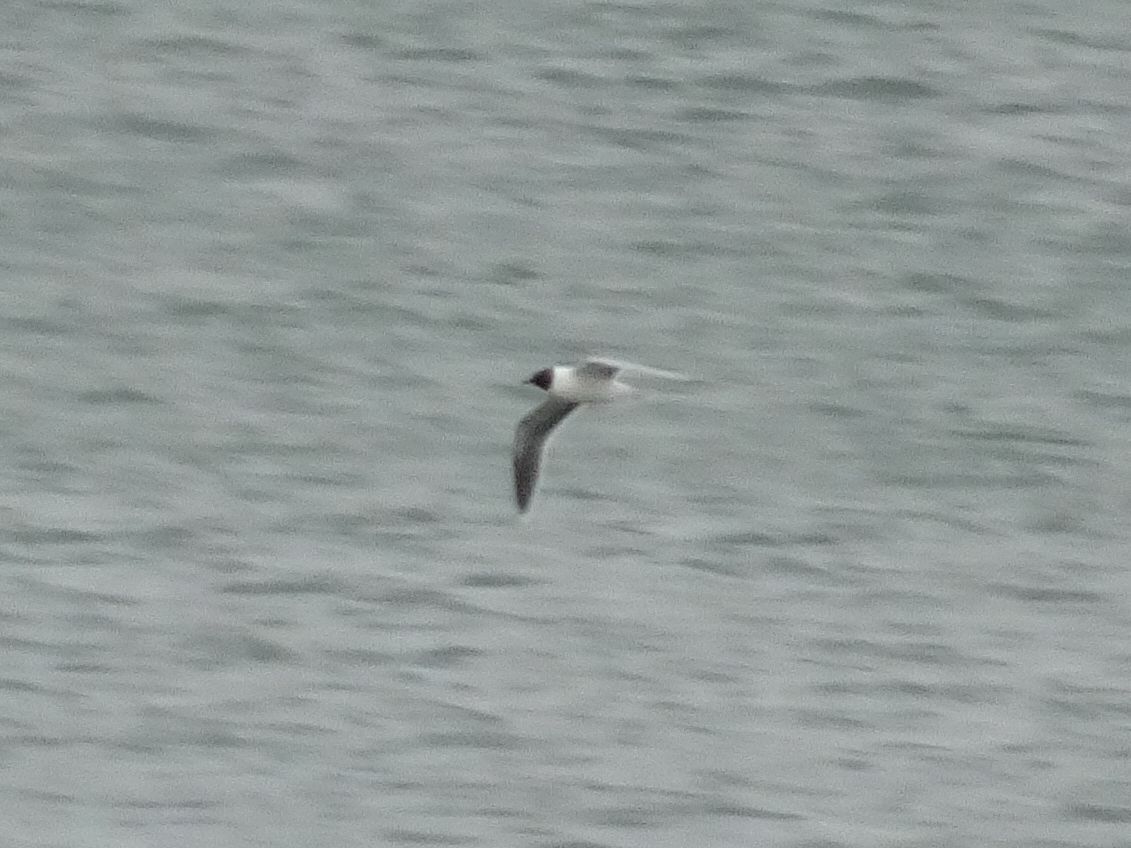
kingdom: Animalia
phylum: Chordata
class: Aves
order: Charadriiformes
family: Laridae
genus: Hydrocoloeus
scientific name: Hydrocoloeus minutus
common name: Little gull
